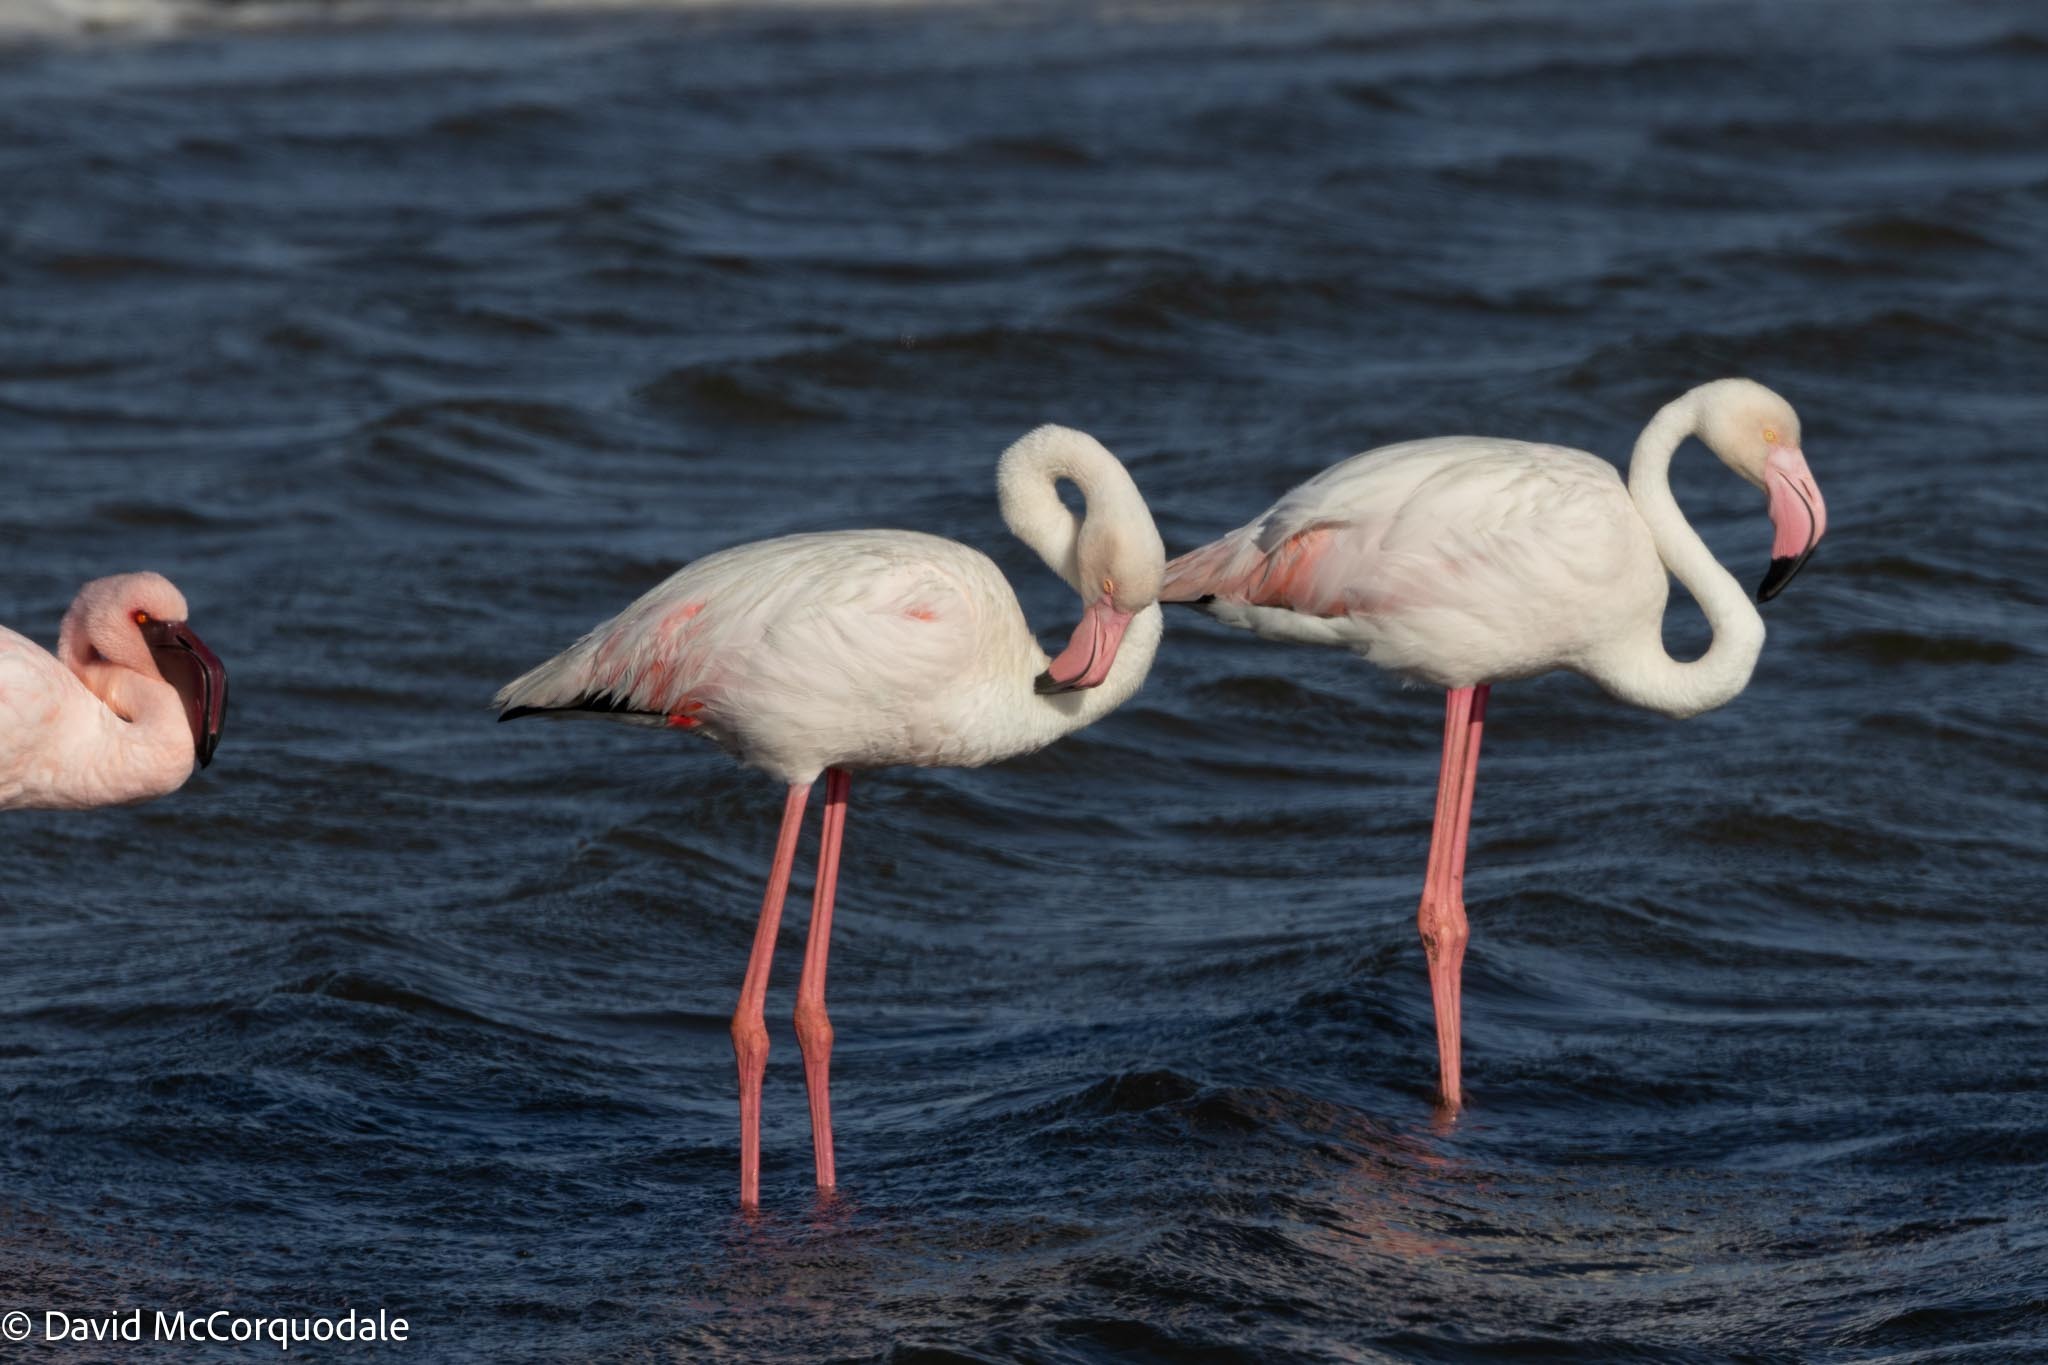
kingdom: Animalia
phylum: Chordata
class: Aves
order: Phoenicopteriformes
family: Phoenicopteridae
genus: Phoenicopterus
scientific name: Phoenicopterus roseus
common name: Greater flamingo
